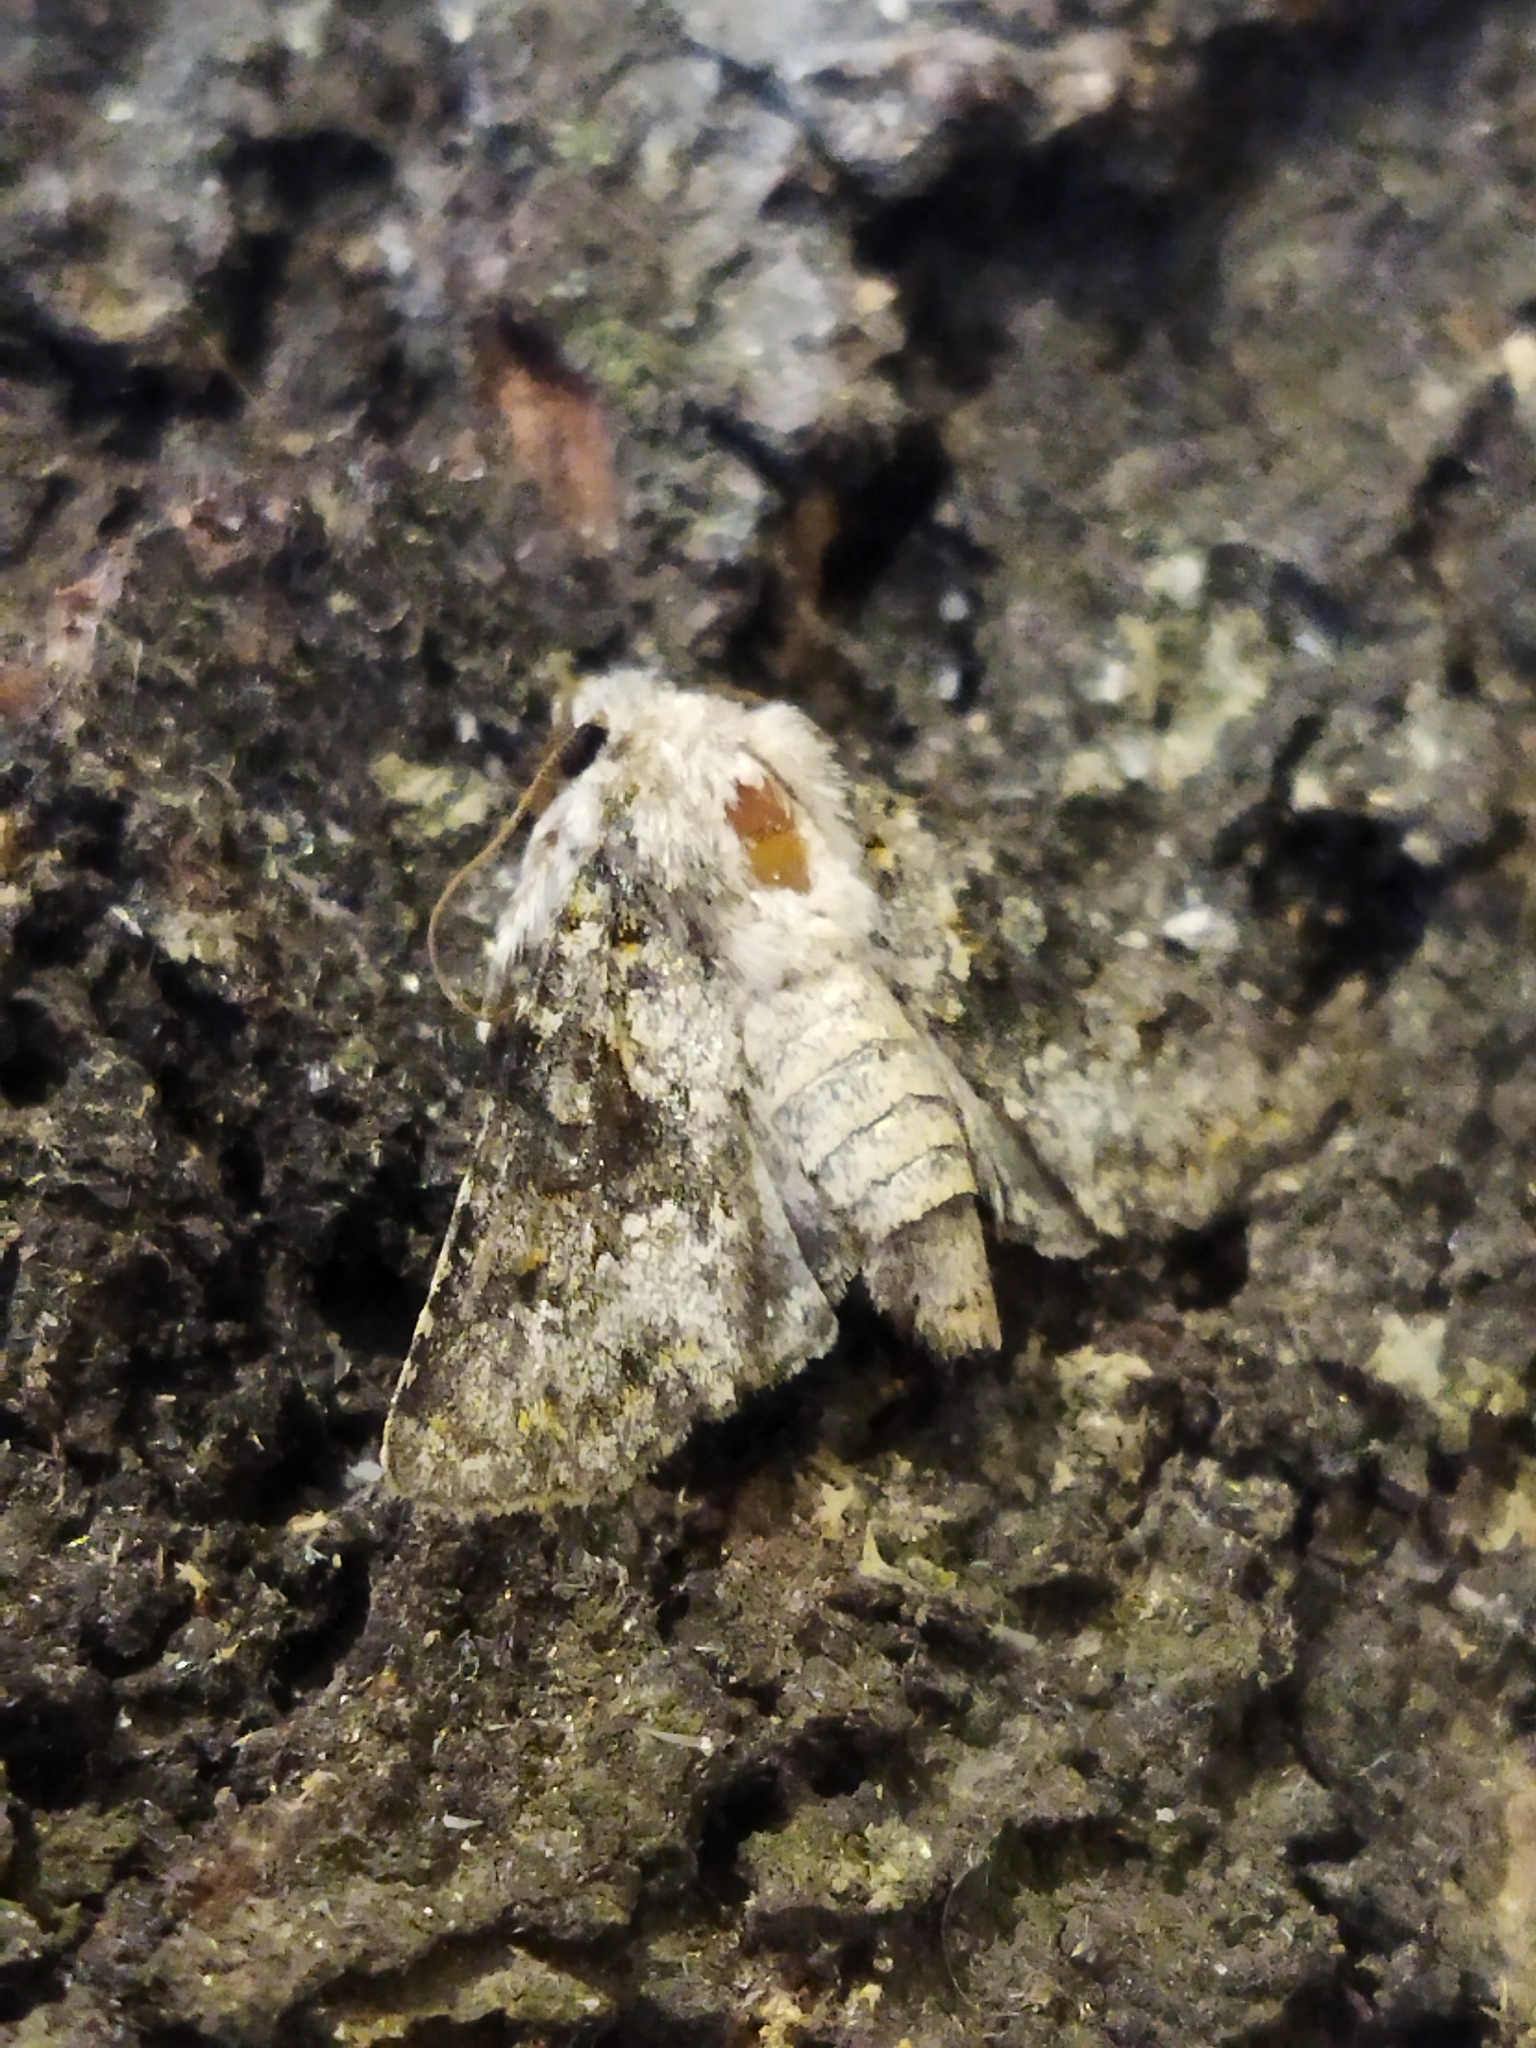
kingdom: Animalia
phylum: Arthropoda
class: Insecta
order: Lepidoptera
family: Noctuidae
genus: Hecatera
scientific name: Hecatera dysodea
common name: Small ranunculus
